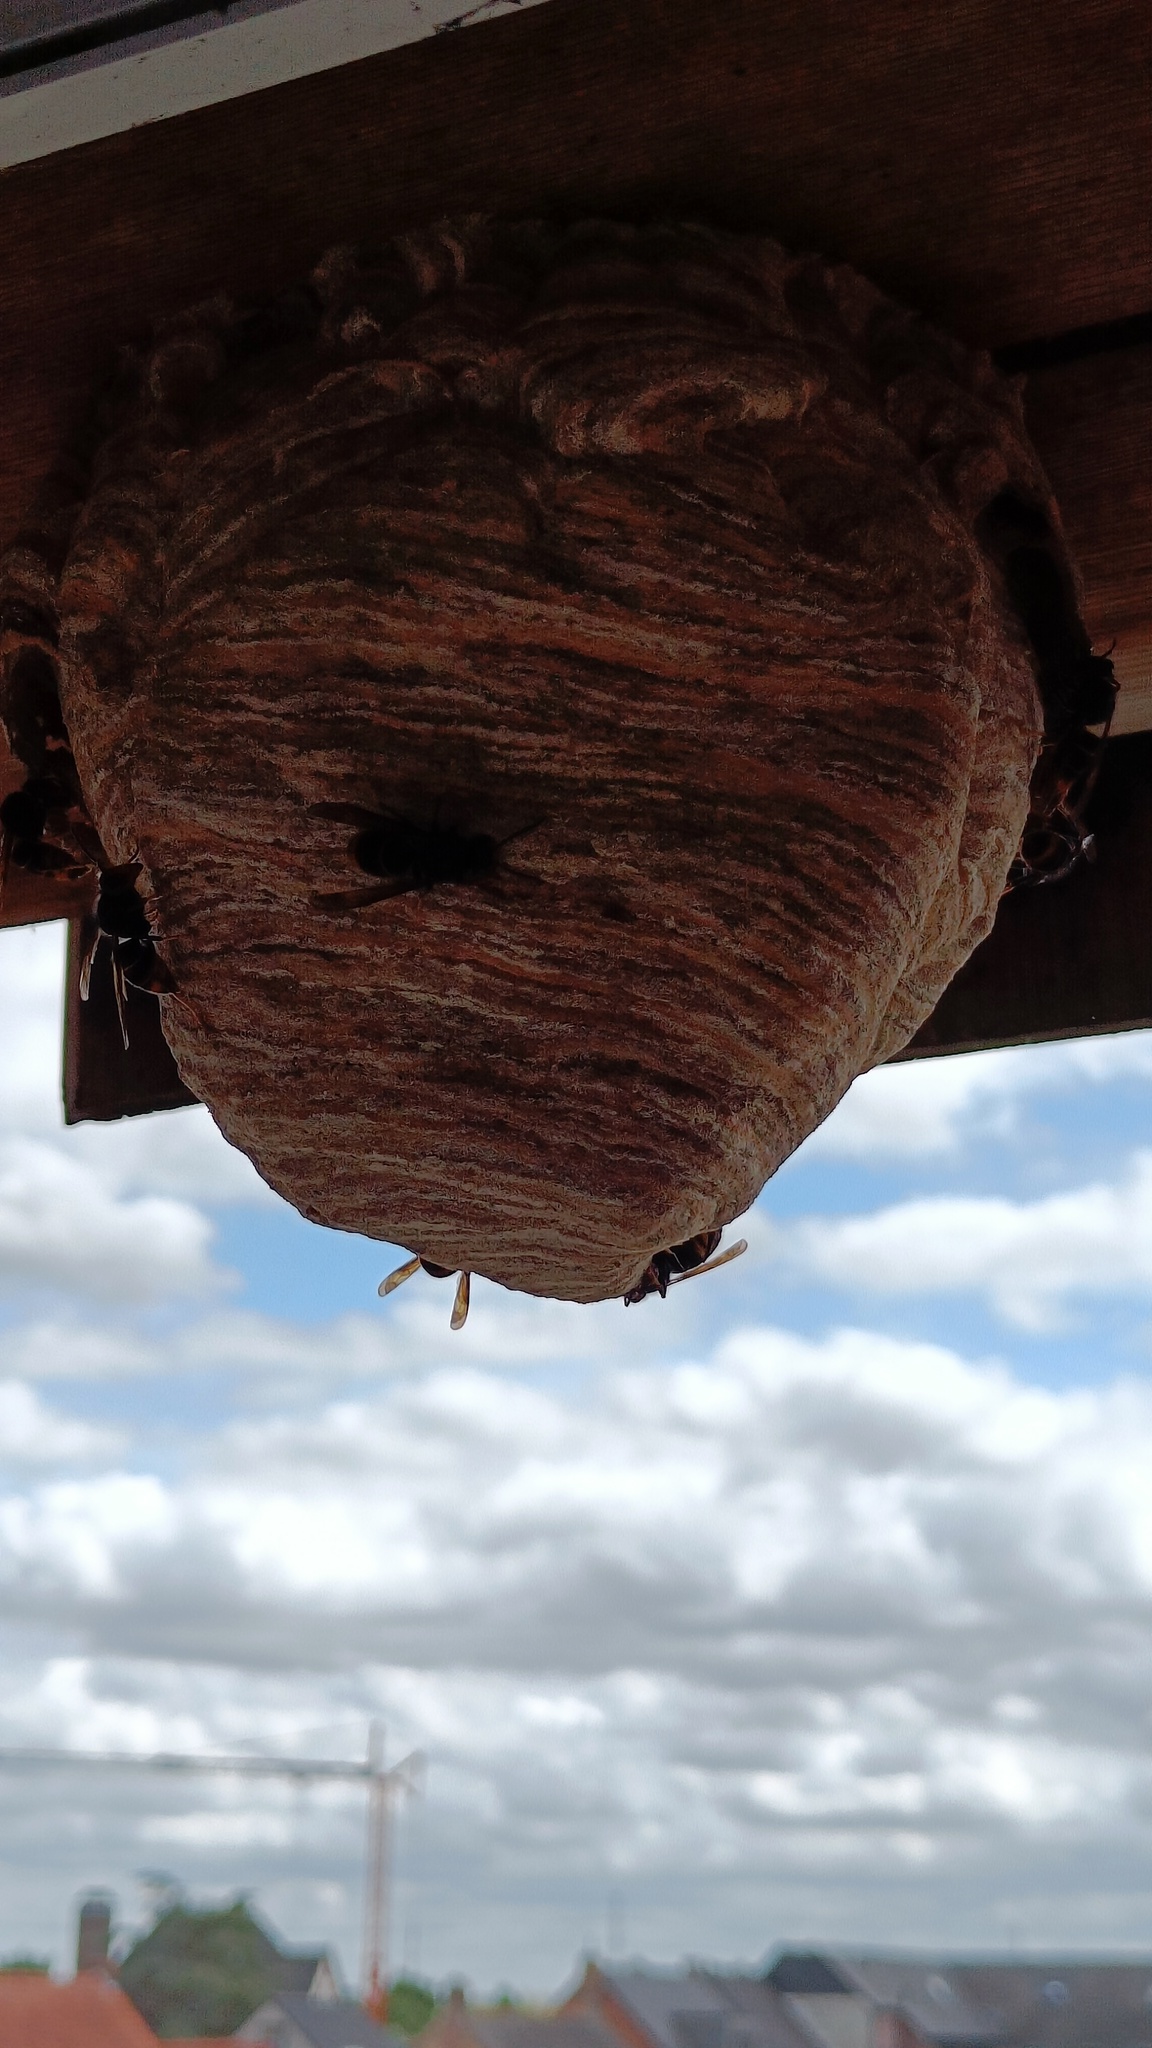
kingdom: Animalia
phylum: Arthropoda
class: Insecta
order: Hymenoptera
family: Vespidae
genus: Vespa
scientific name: Vespa velutina
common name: Asian hornet
